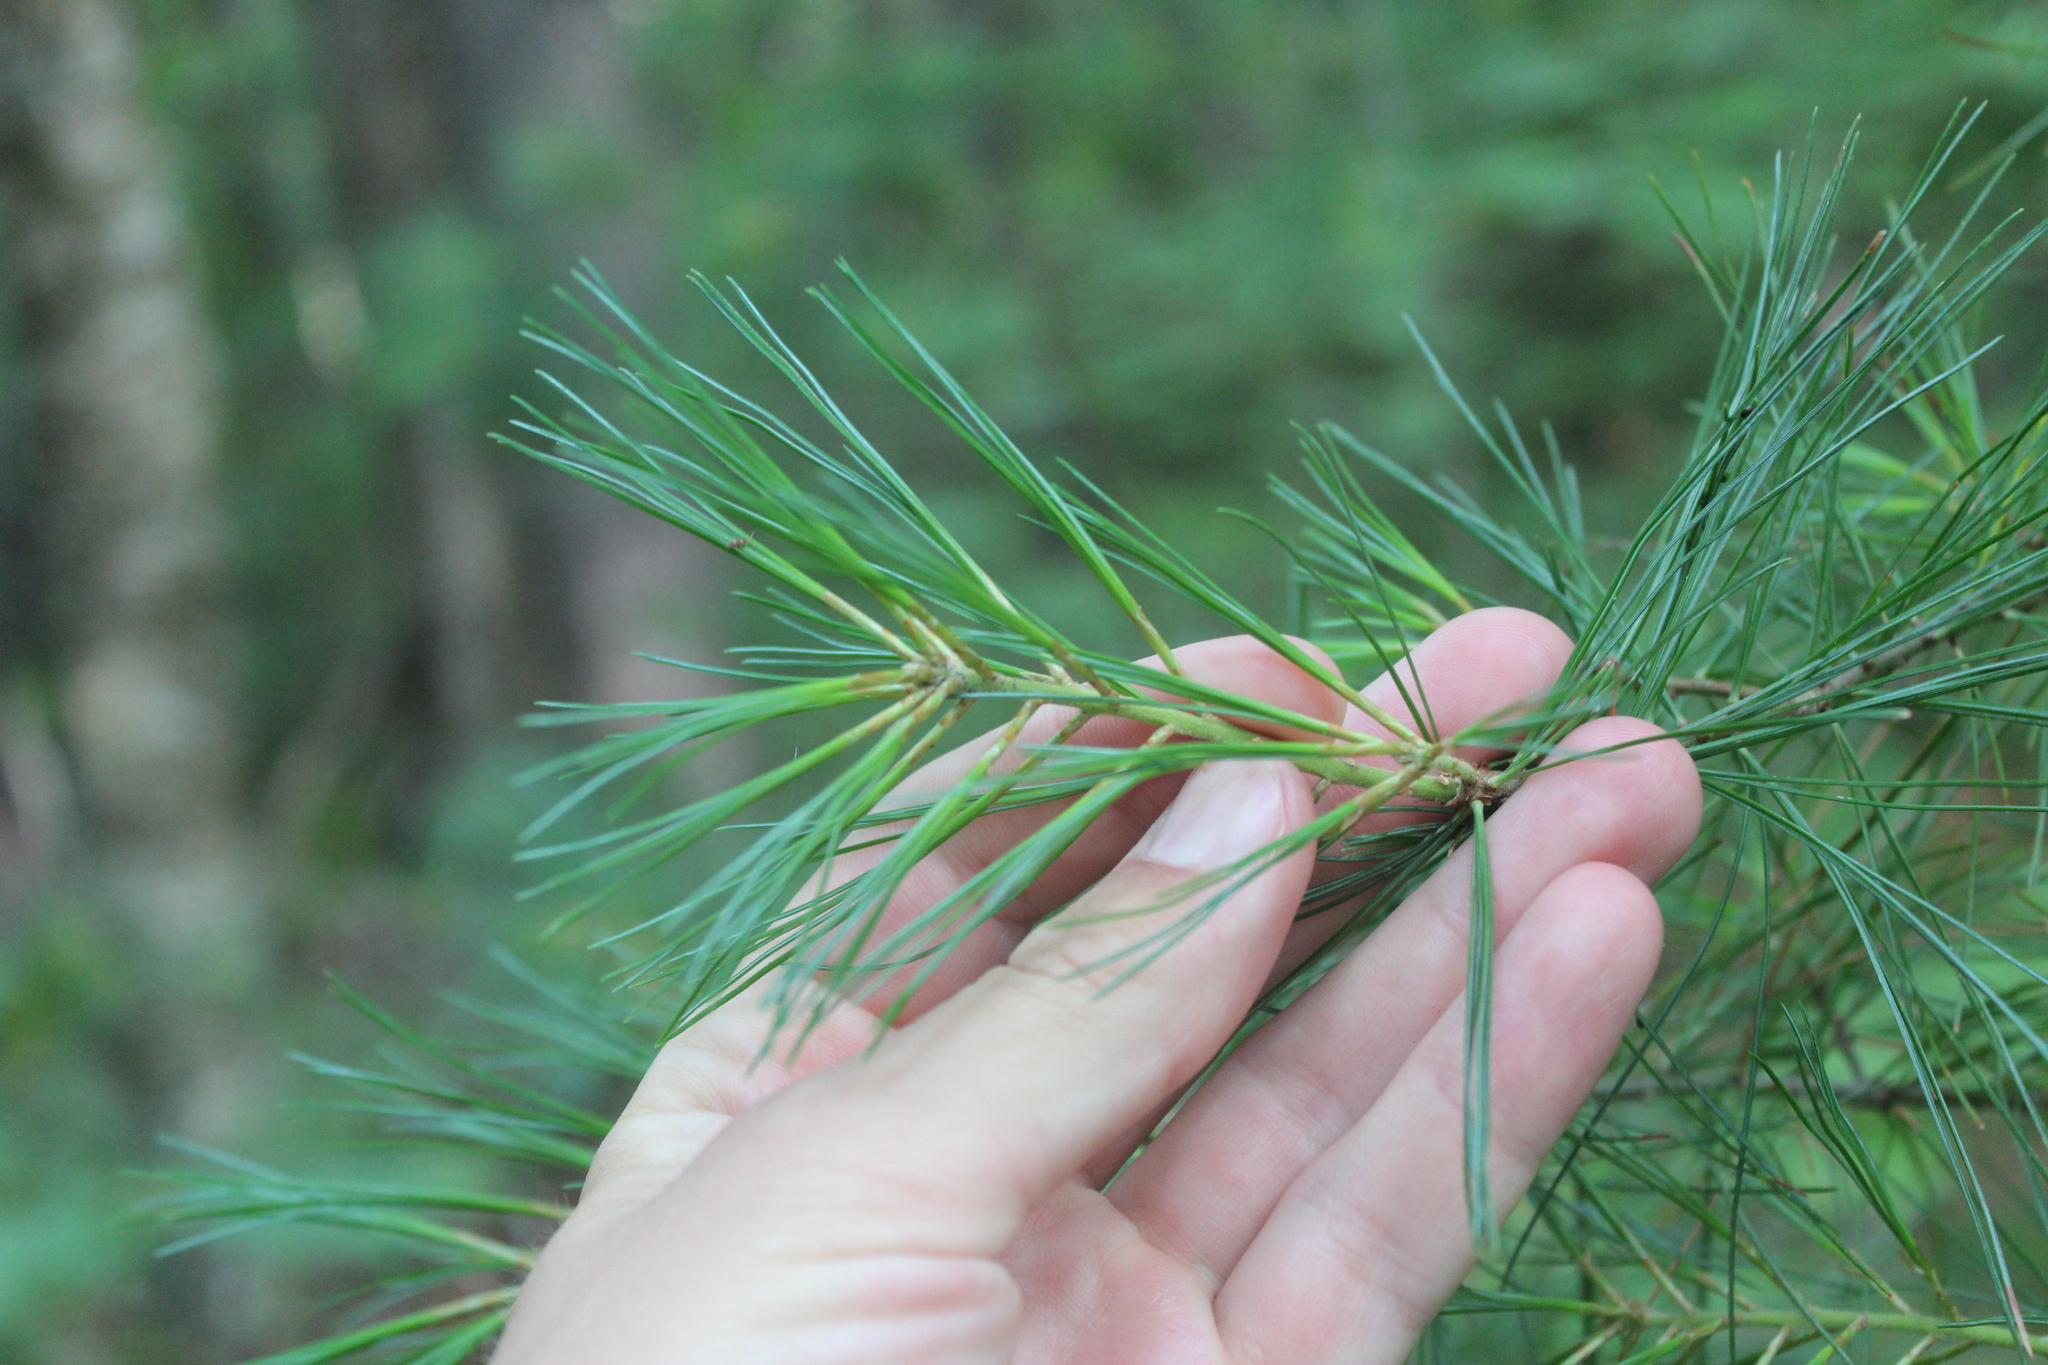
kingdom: Plantae
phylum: Tracheophyta
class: Pinopsida
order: Pinales
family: Pinaceae
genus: Pinus
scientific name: Pinus strobus
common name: Weymouth pine
